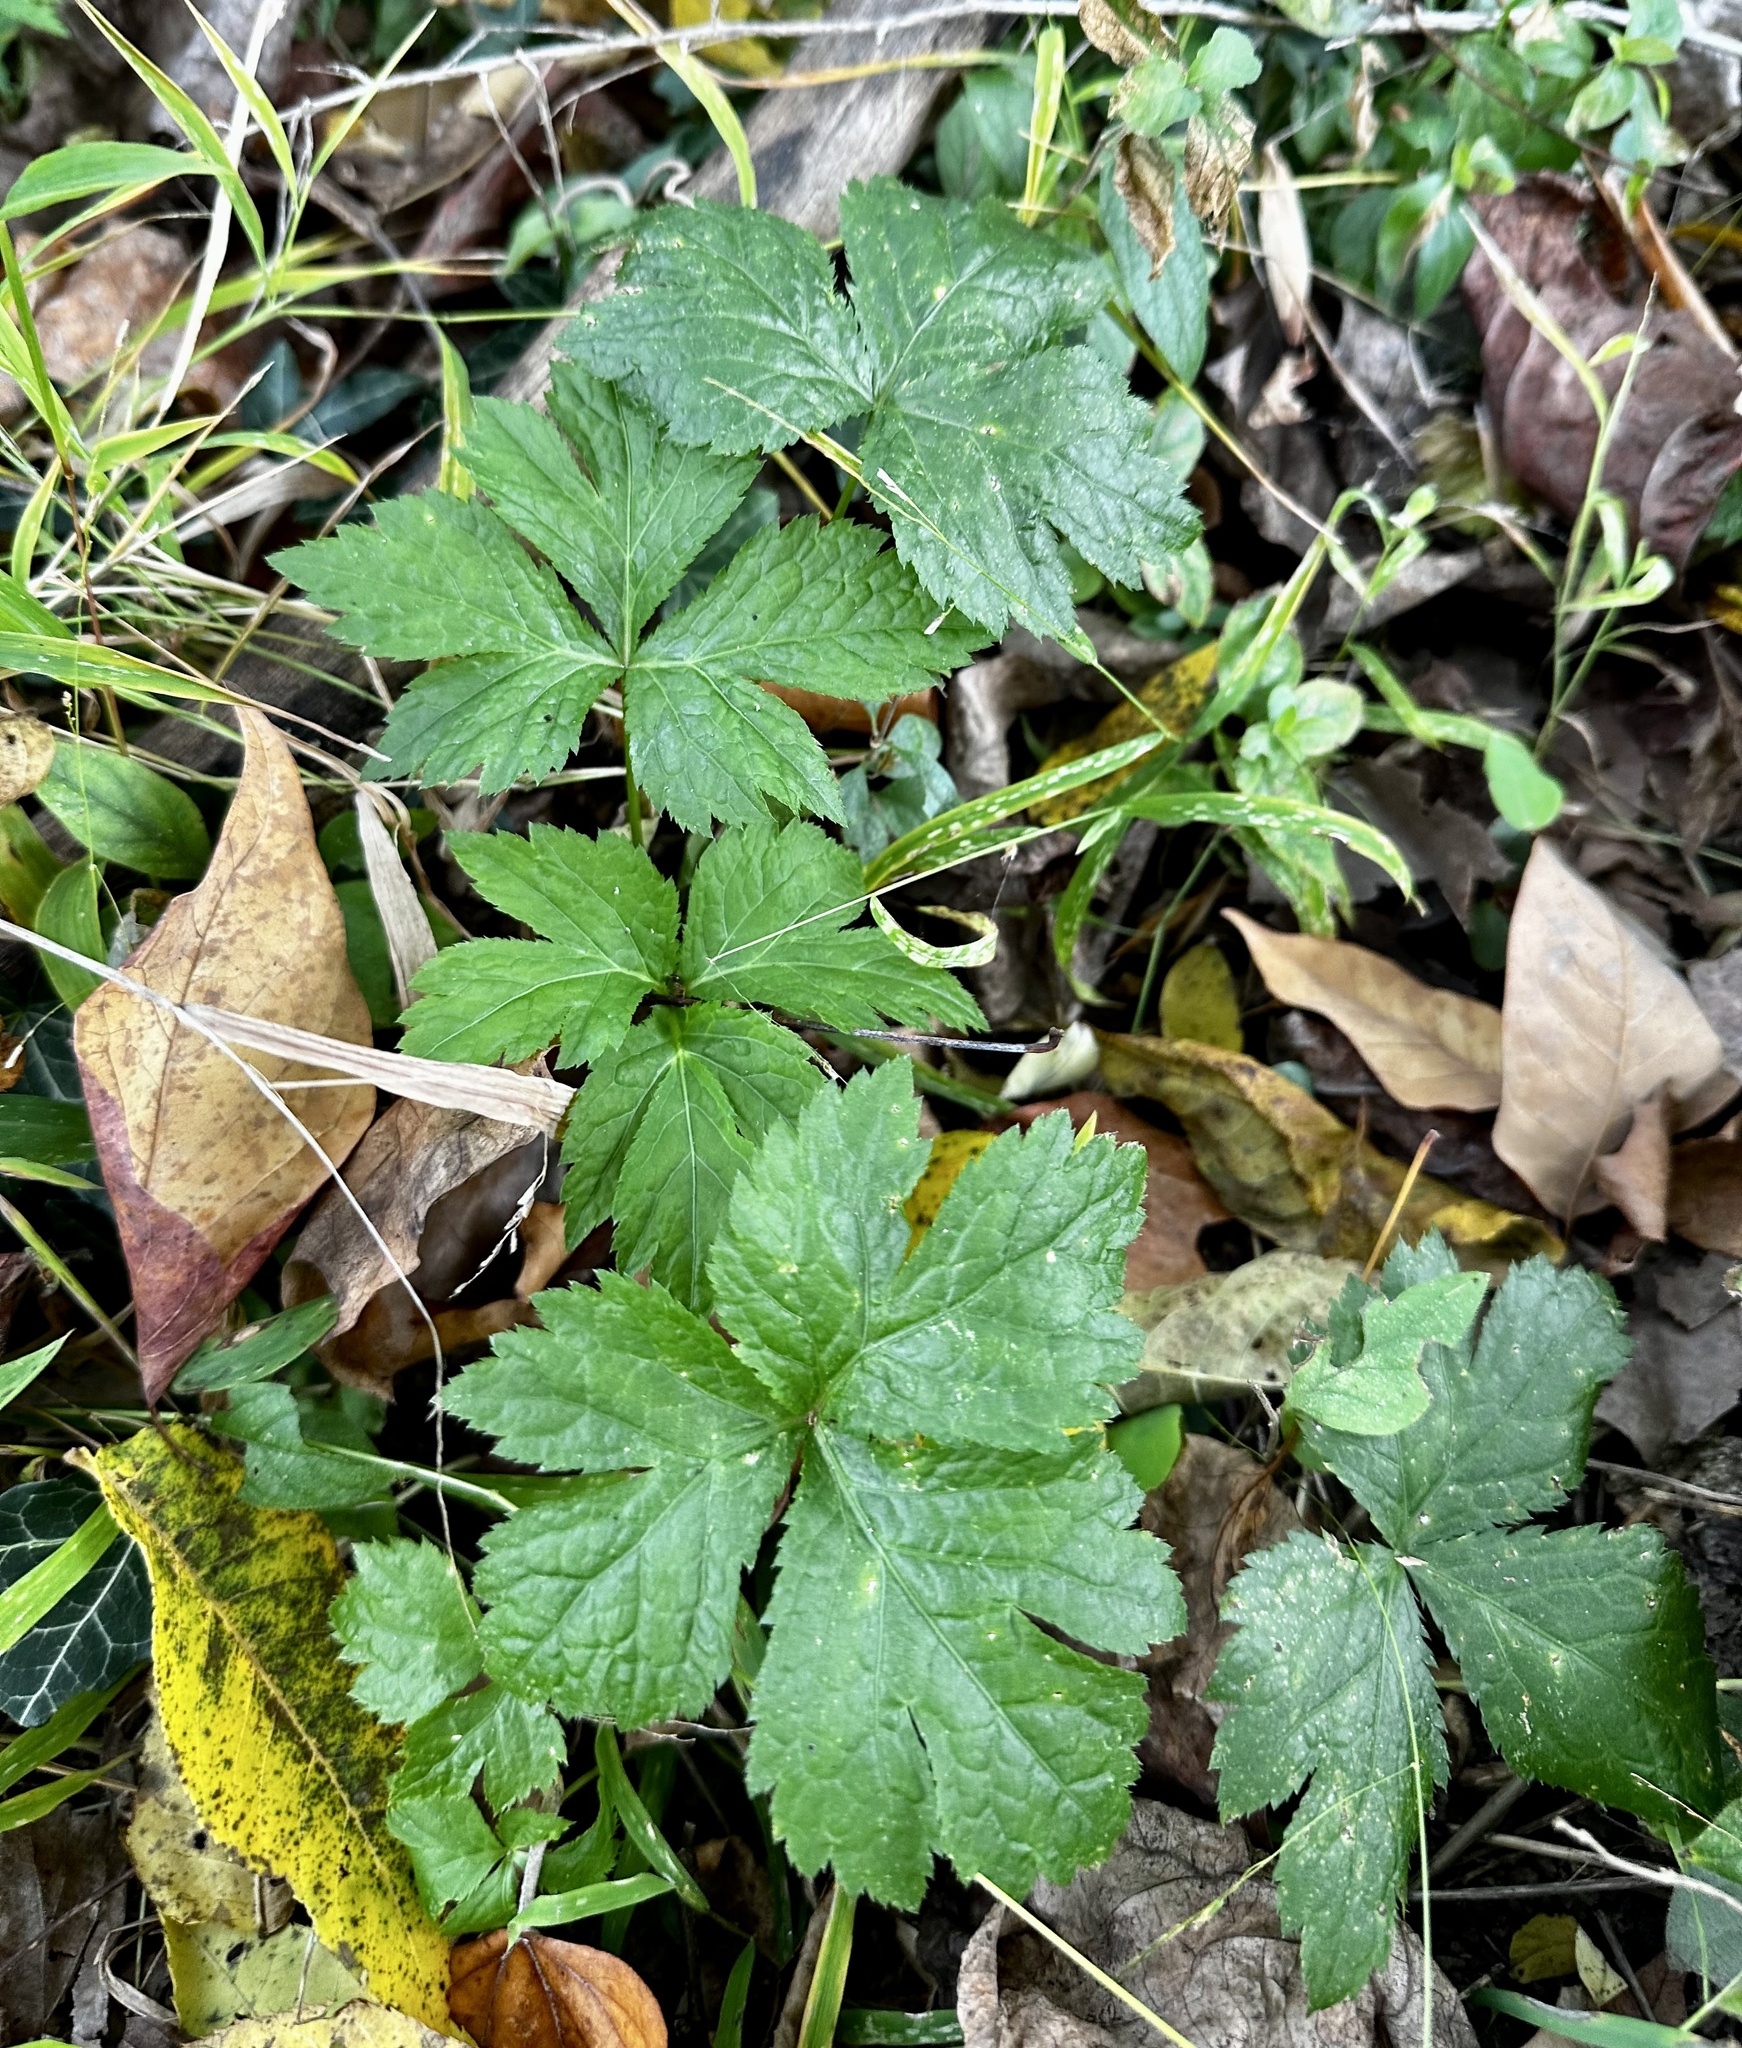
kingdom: Plantae
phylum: Tracheophyta
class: Magnoliopsida
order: Apiales
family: Apiaceae
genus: Cryptotaenia
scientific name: Cryptotaenia canadensis
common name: Honewort
